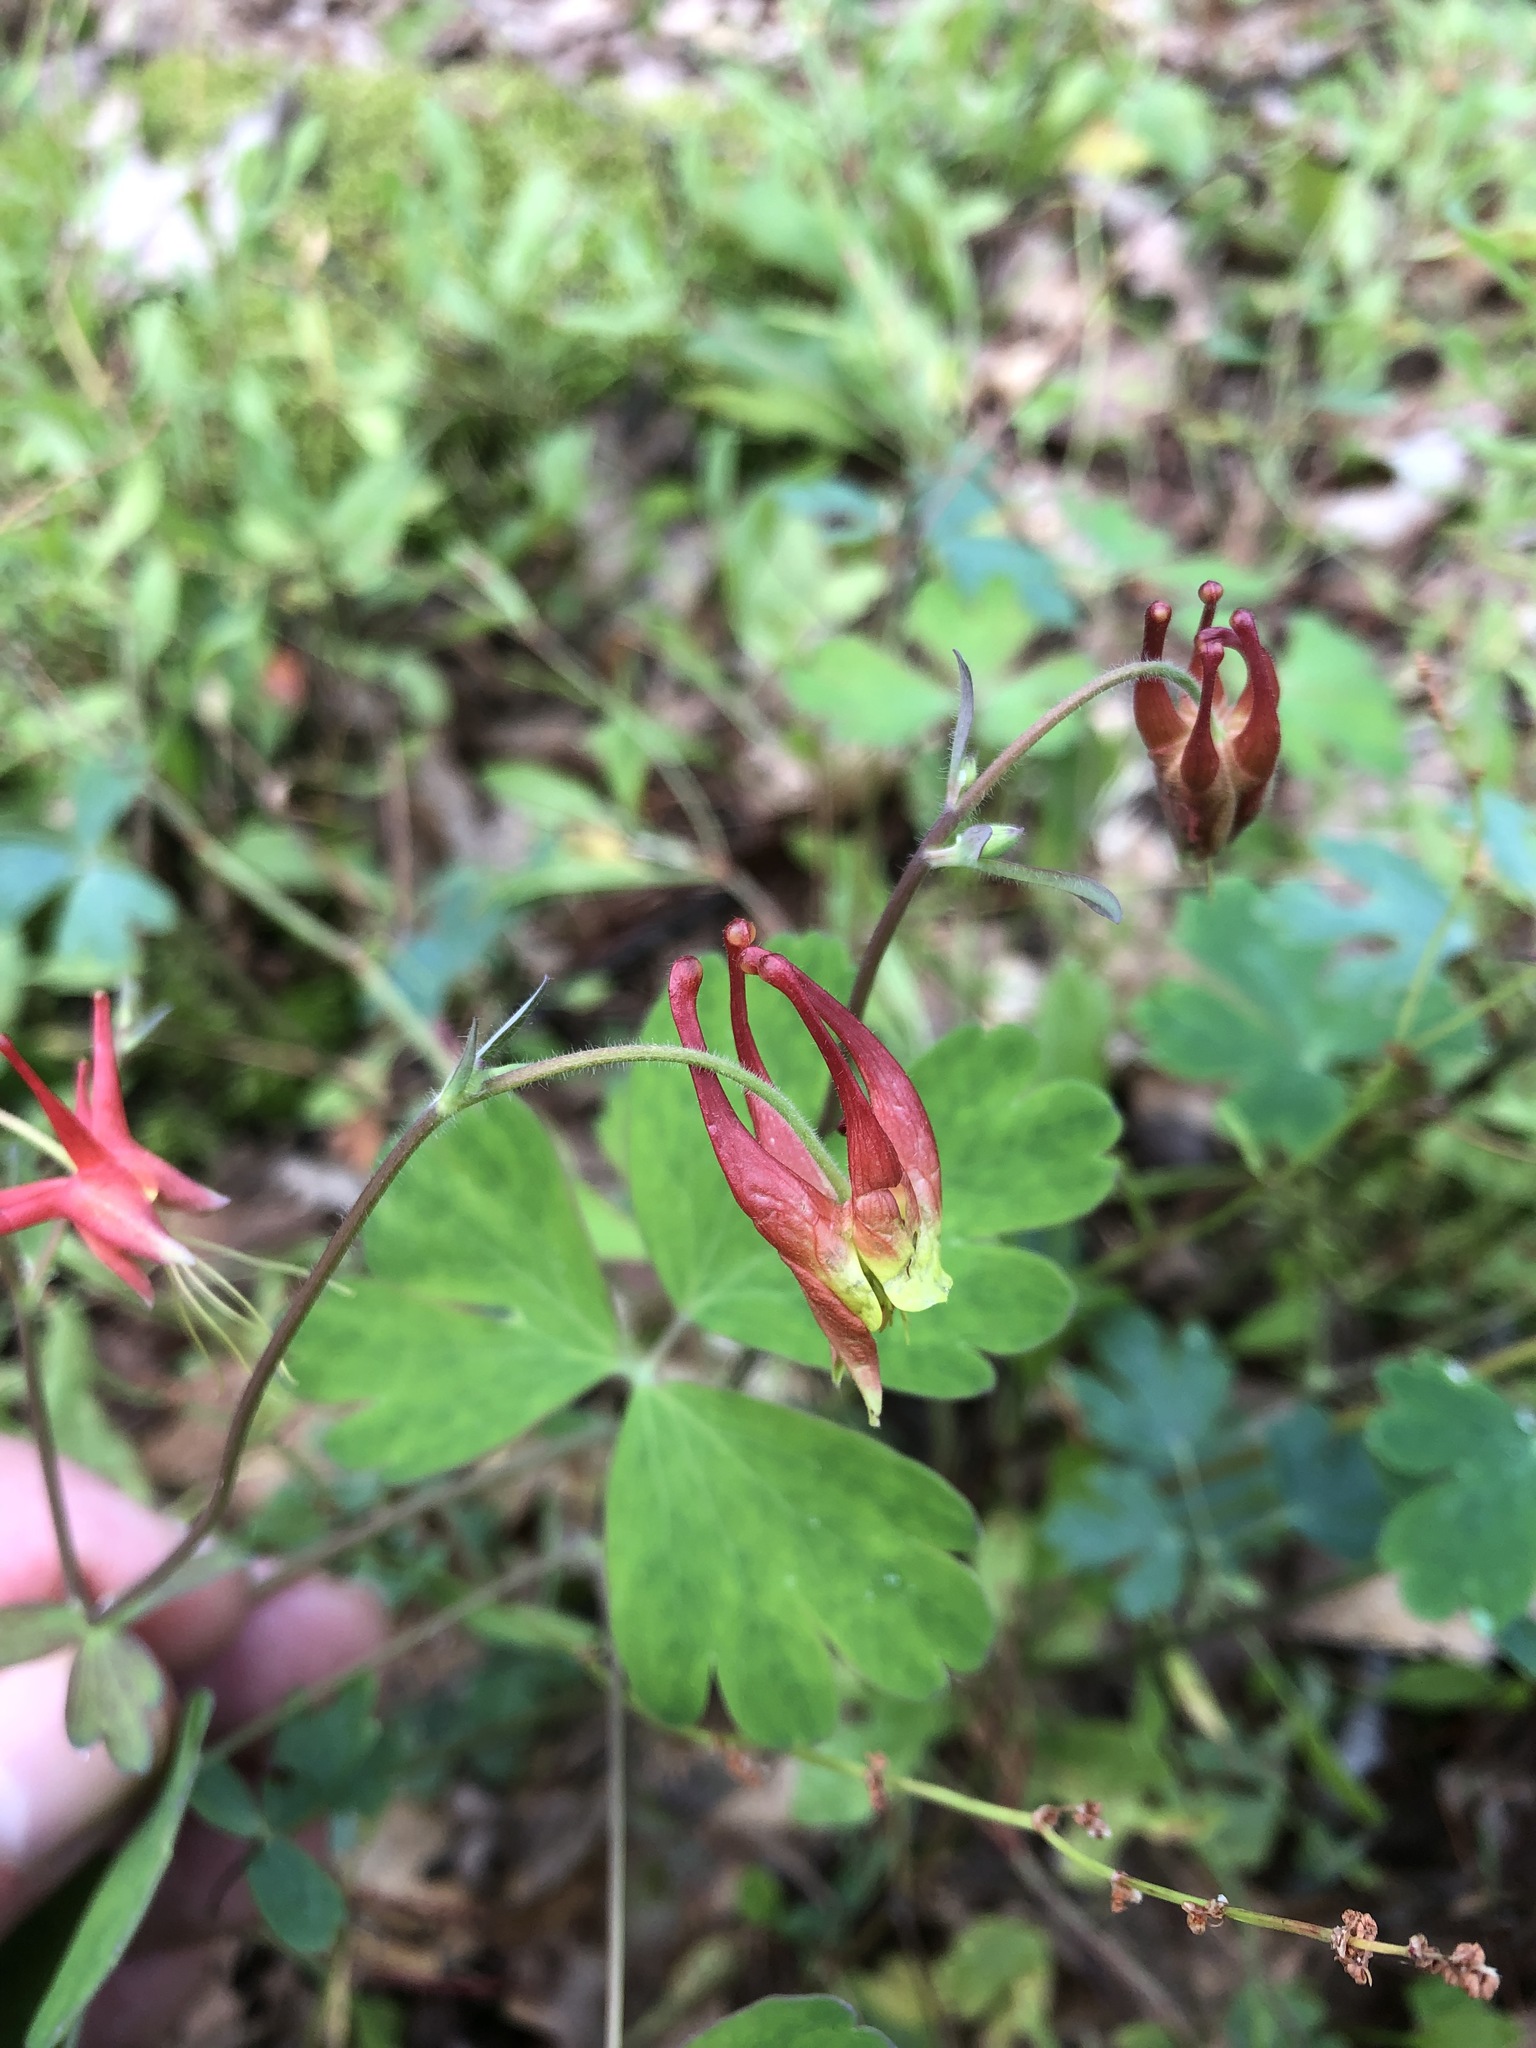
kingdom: Plantae
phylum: Tracheophyta
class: Magnoliopsida
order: Ranunculales
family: Ranunculaceae
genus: Aquilegia
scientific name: Aquilegia canadensis
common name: American columbine
